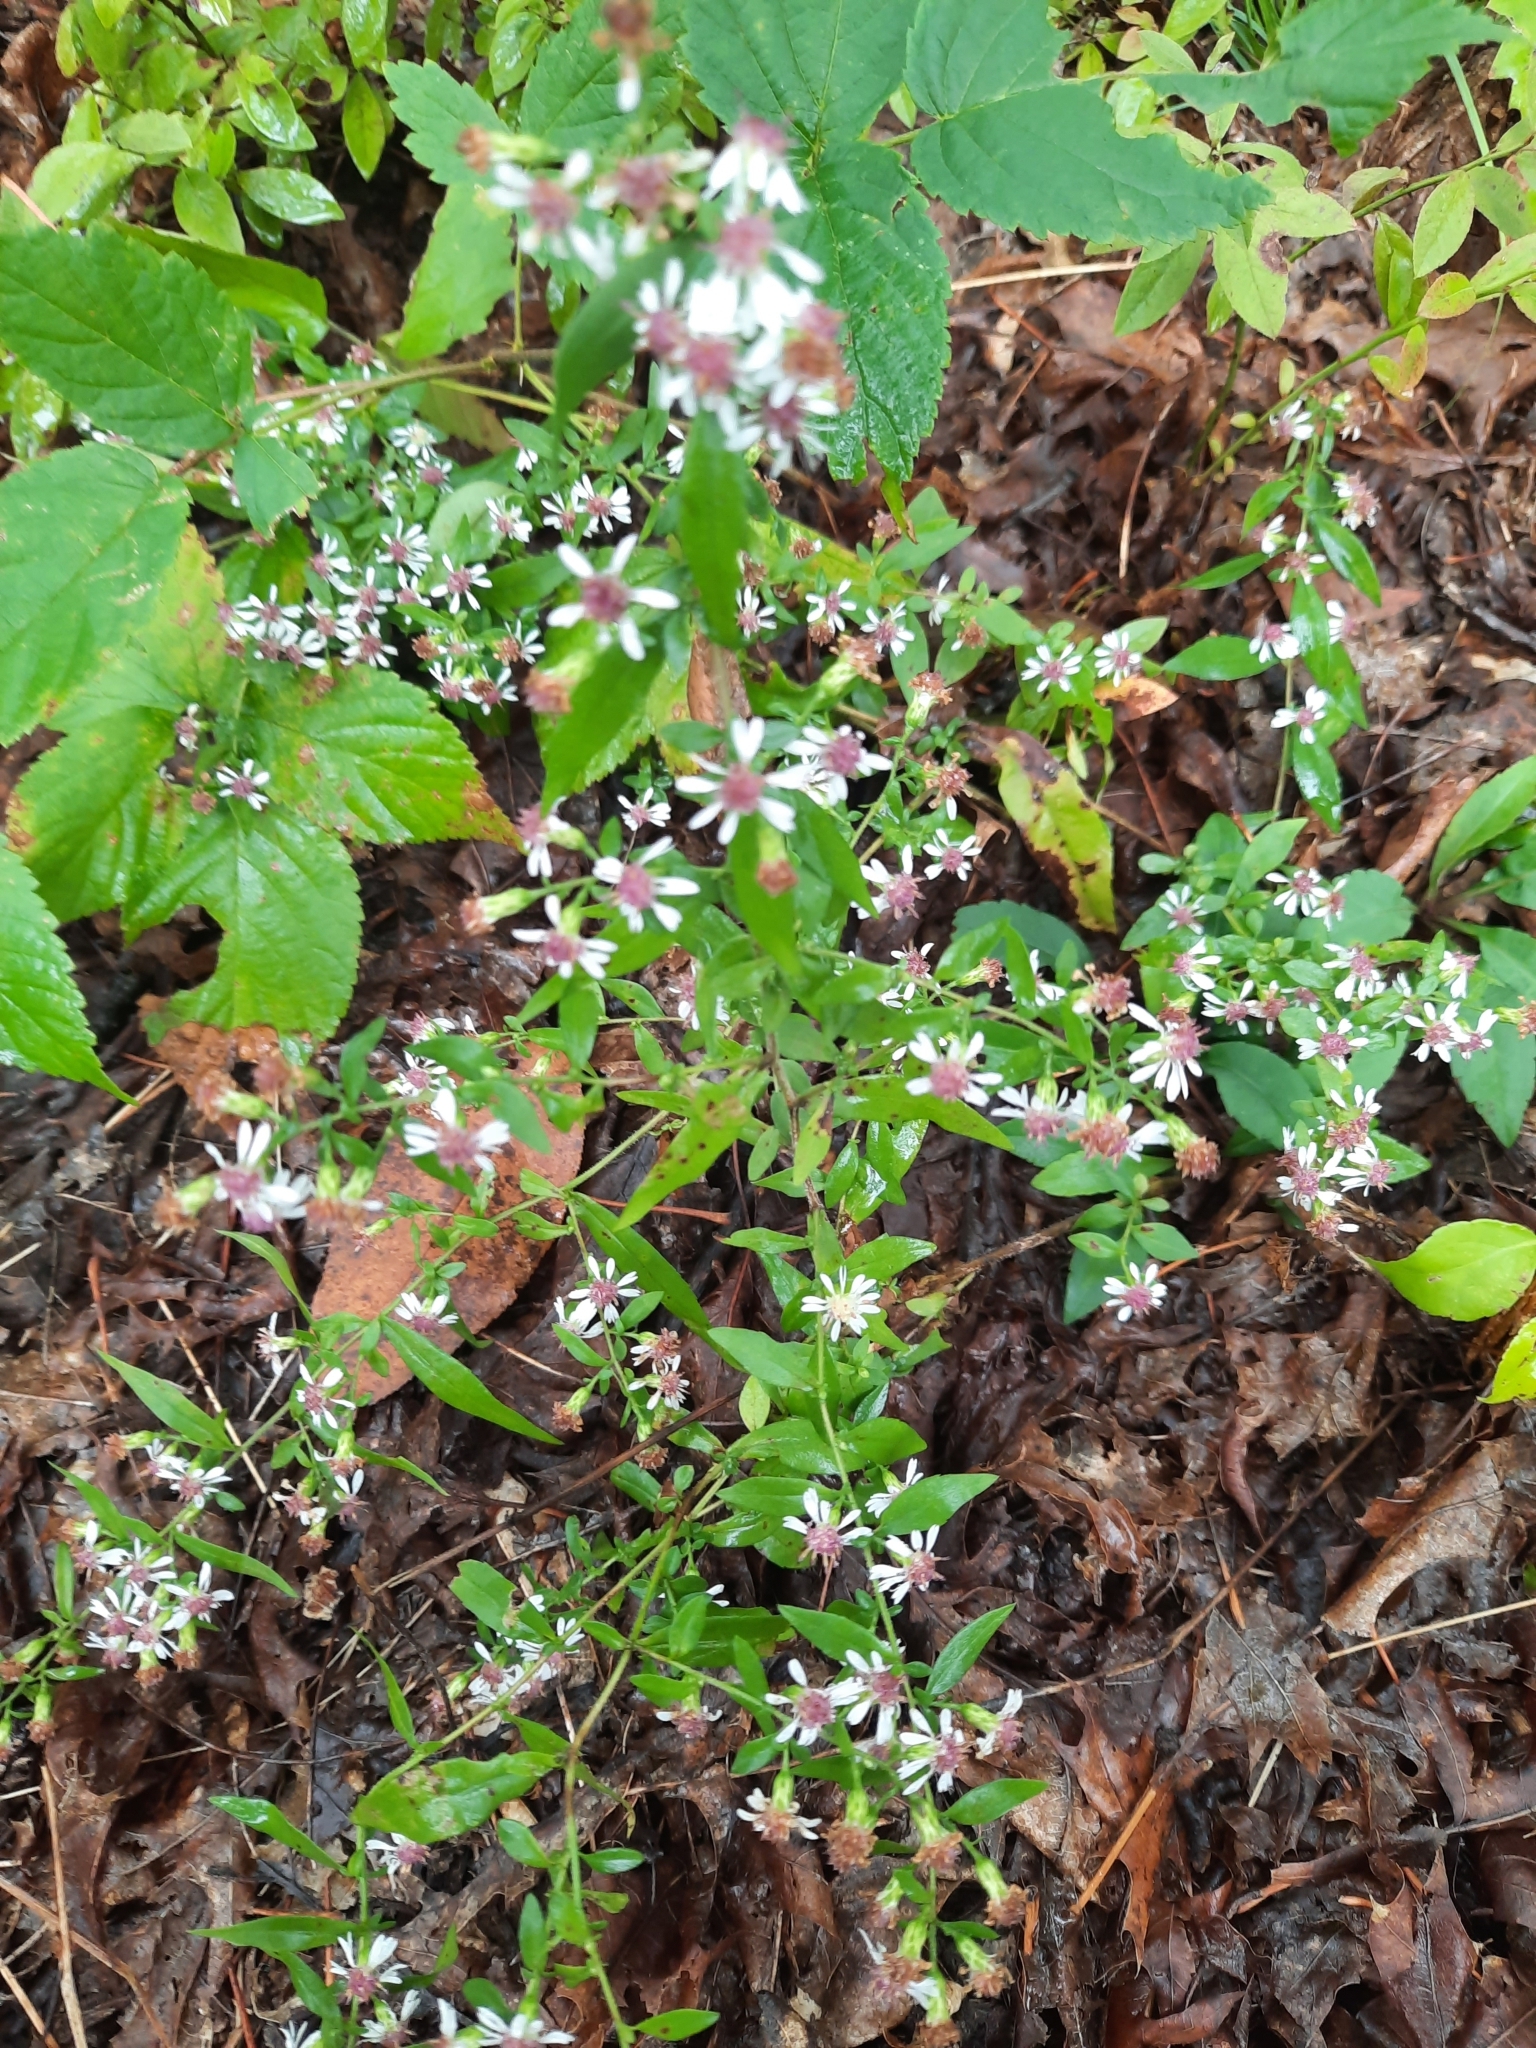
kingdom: Plantae
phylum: Tracheophyta
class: Magnoliopsida
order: Asterales
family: Asteraceae
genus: Symphyotrichum
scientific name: Symphyotrichum lateriflorum
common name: Calico aster
